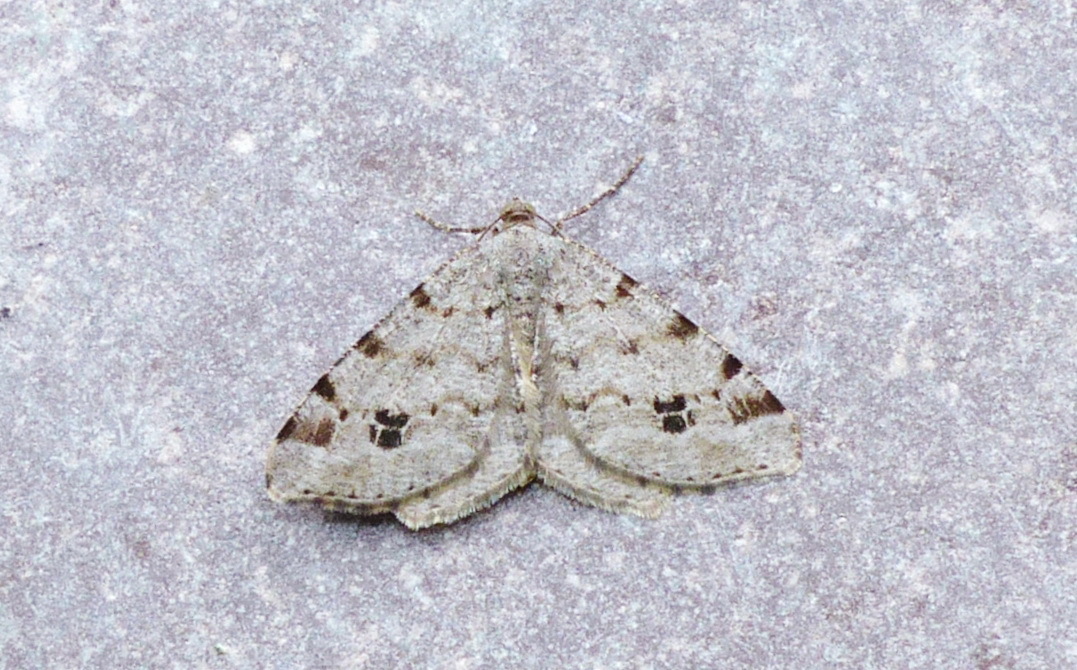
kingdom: Animalia
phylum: Arthropoda
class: Insecta
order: Lepidoptera
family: Geometridae
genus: Macaria
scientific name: Macaria pinistrobata
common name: White pine angle
